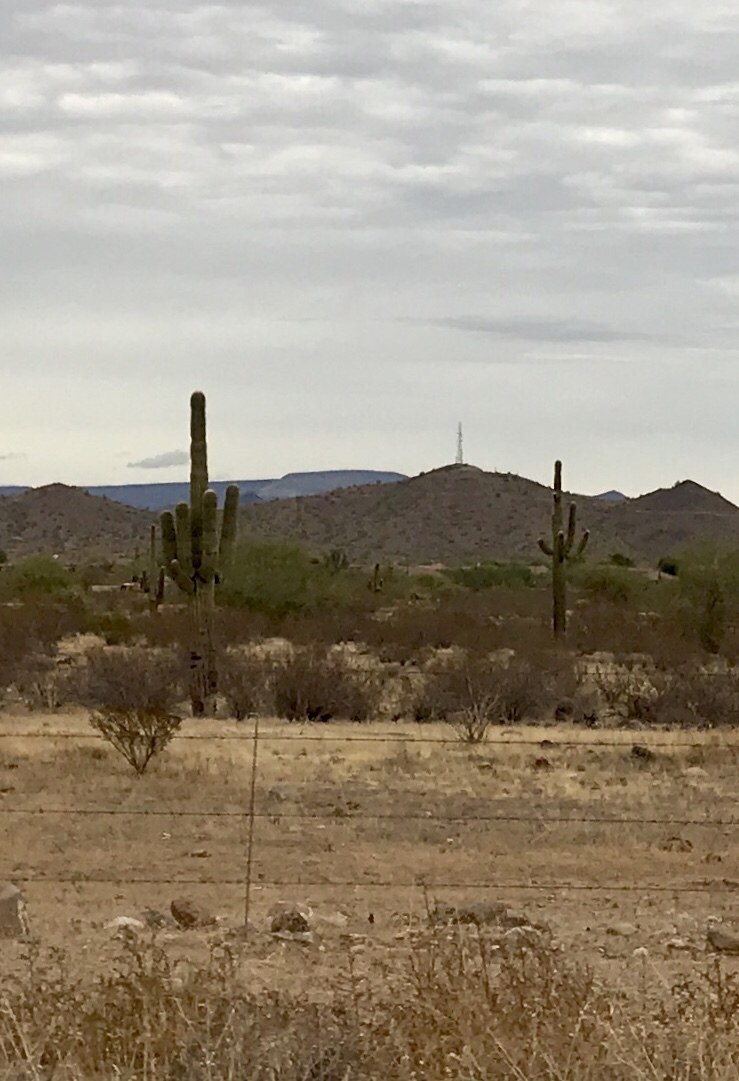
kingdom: Plantae
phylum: Tracheophyta
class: Magnoliopsida
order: Caryophyllales
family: Cactaceae
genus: Carnegiea
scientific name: Carnegiea gigantea
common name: Saguaro
